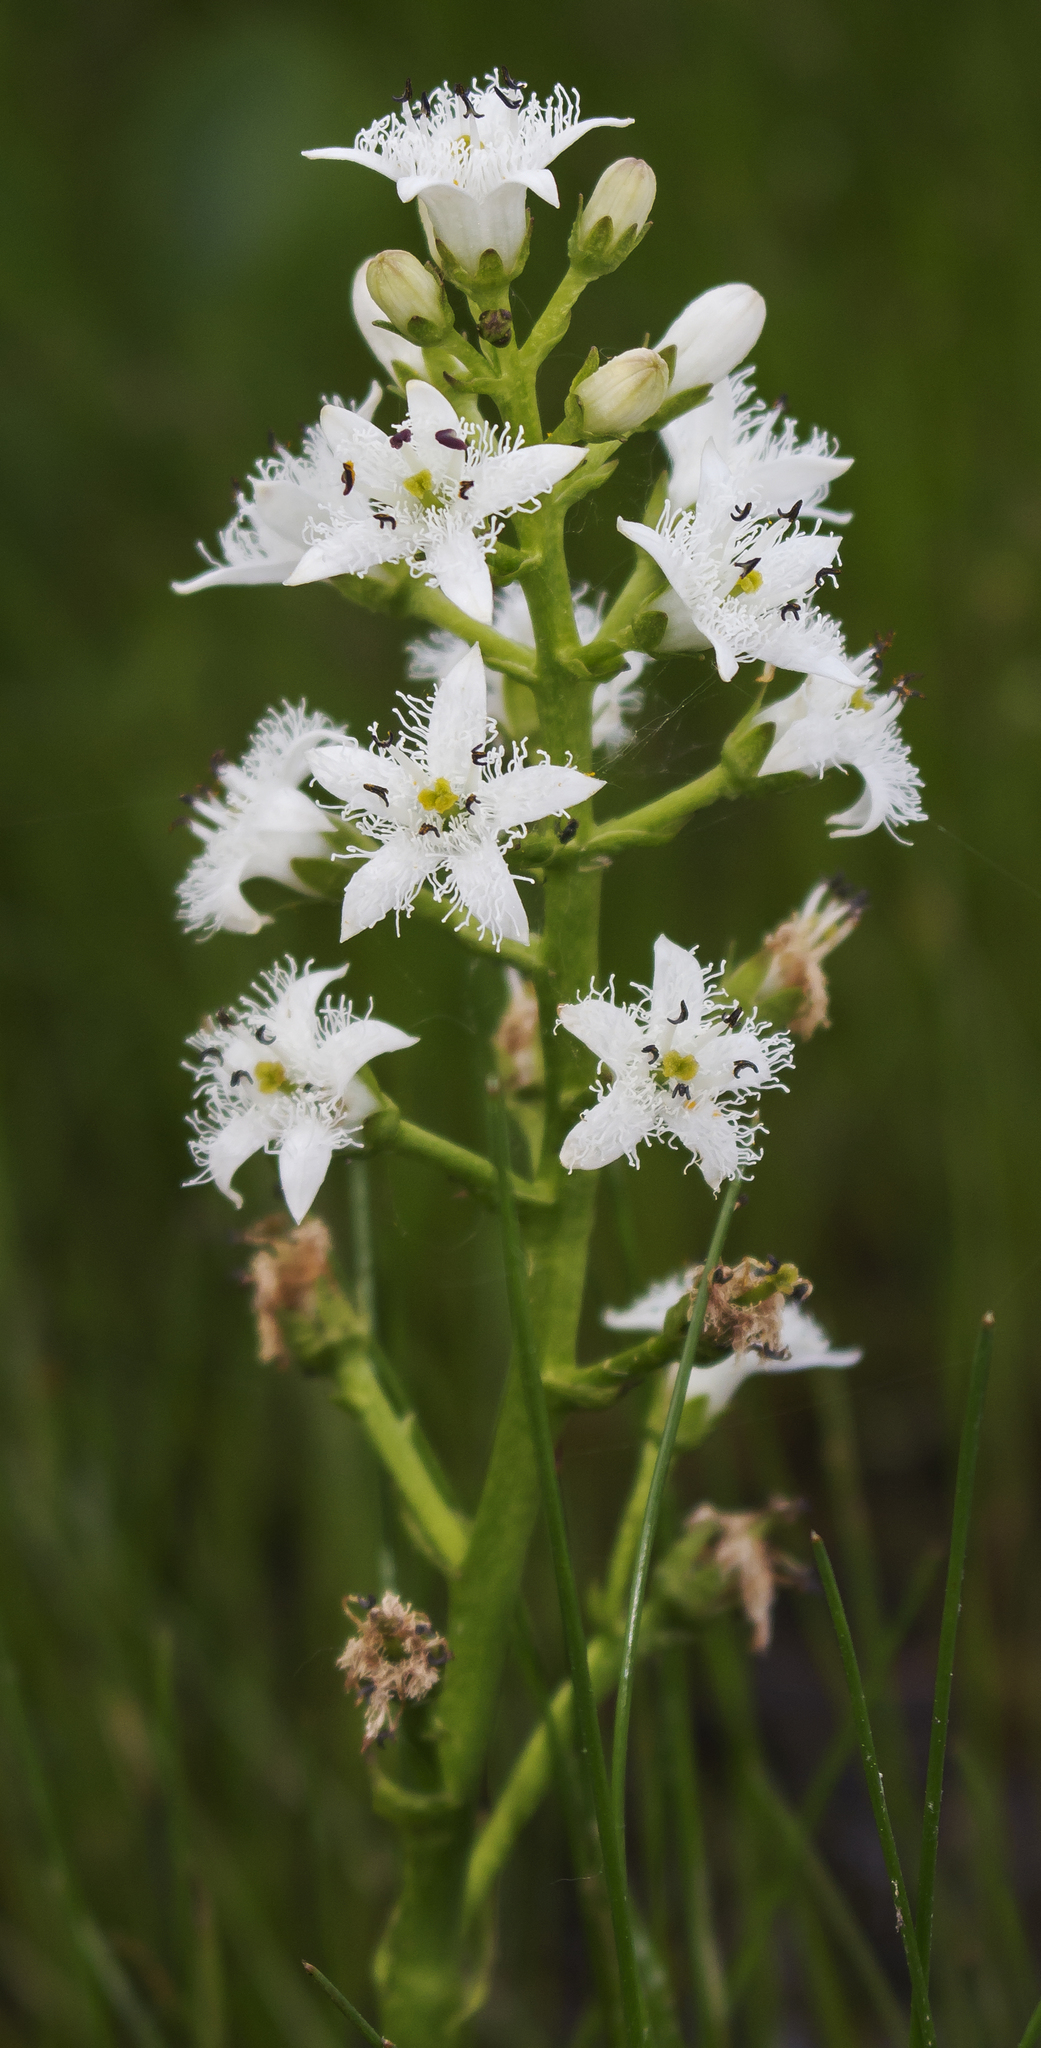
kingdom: Plantae
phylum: Tracheophyta
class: Magnoliopsida
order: Asterales
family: Menyanthaceae
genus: Menyanthes
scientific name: Menyanthes trifoliata
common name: Bogbean
